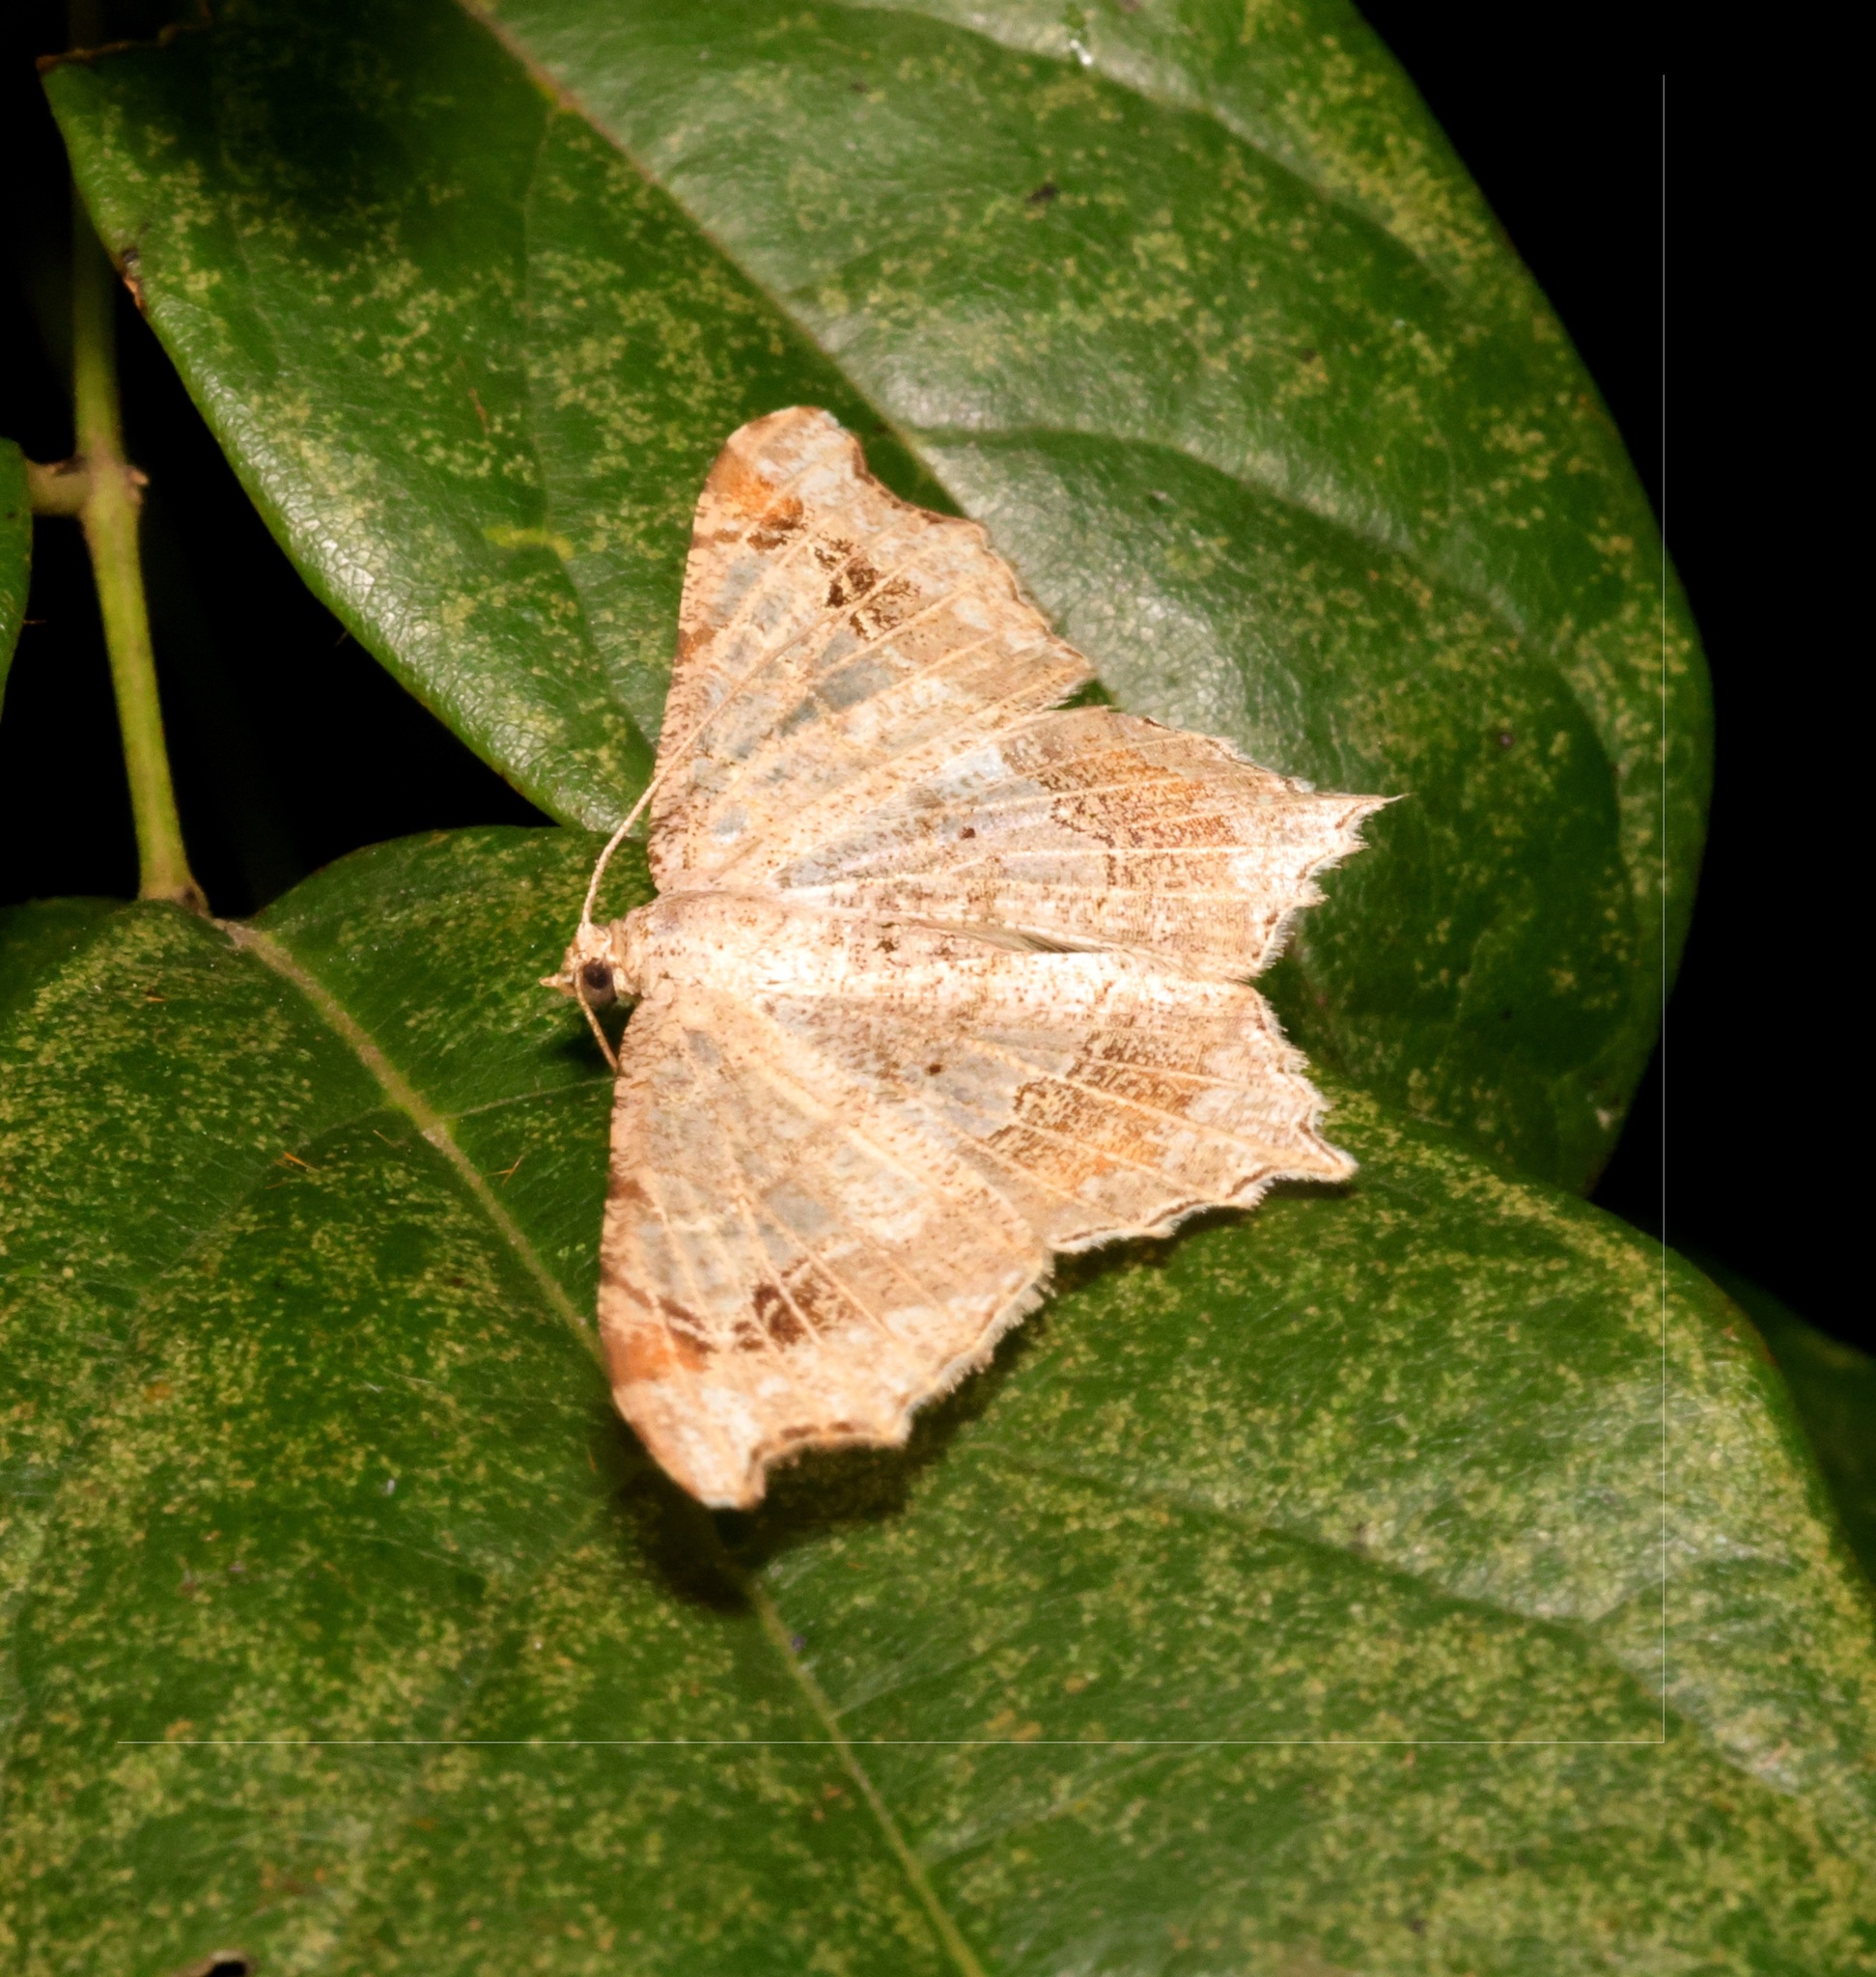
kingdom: Animalia
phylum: Arthropoda
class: Insecta
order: Lepidoptera
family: Geometridae
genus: Chiasmia
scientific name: Chiasmia emersaria
